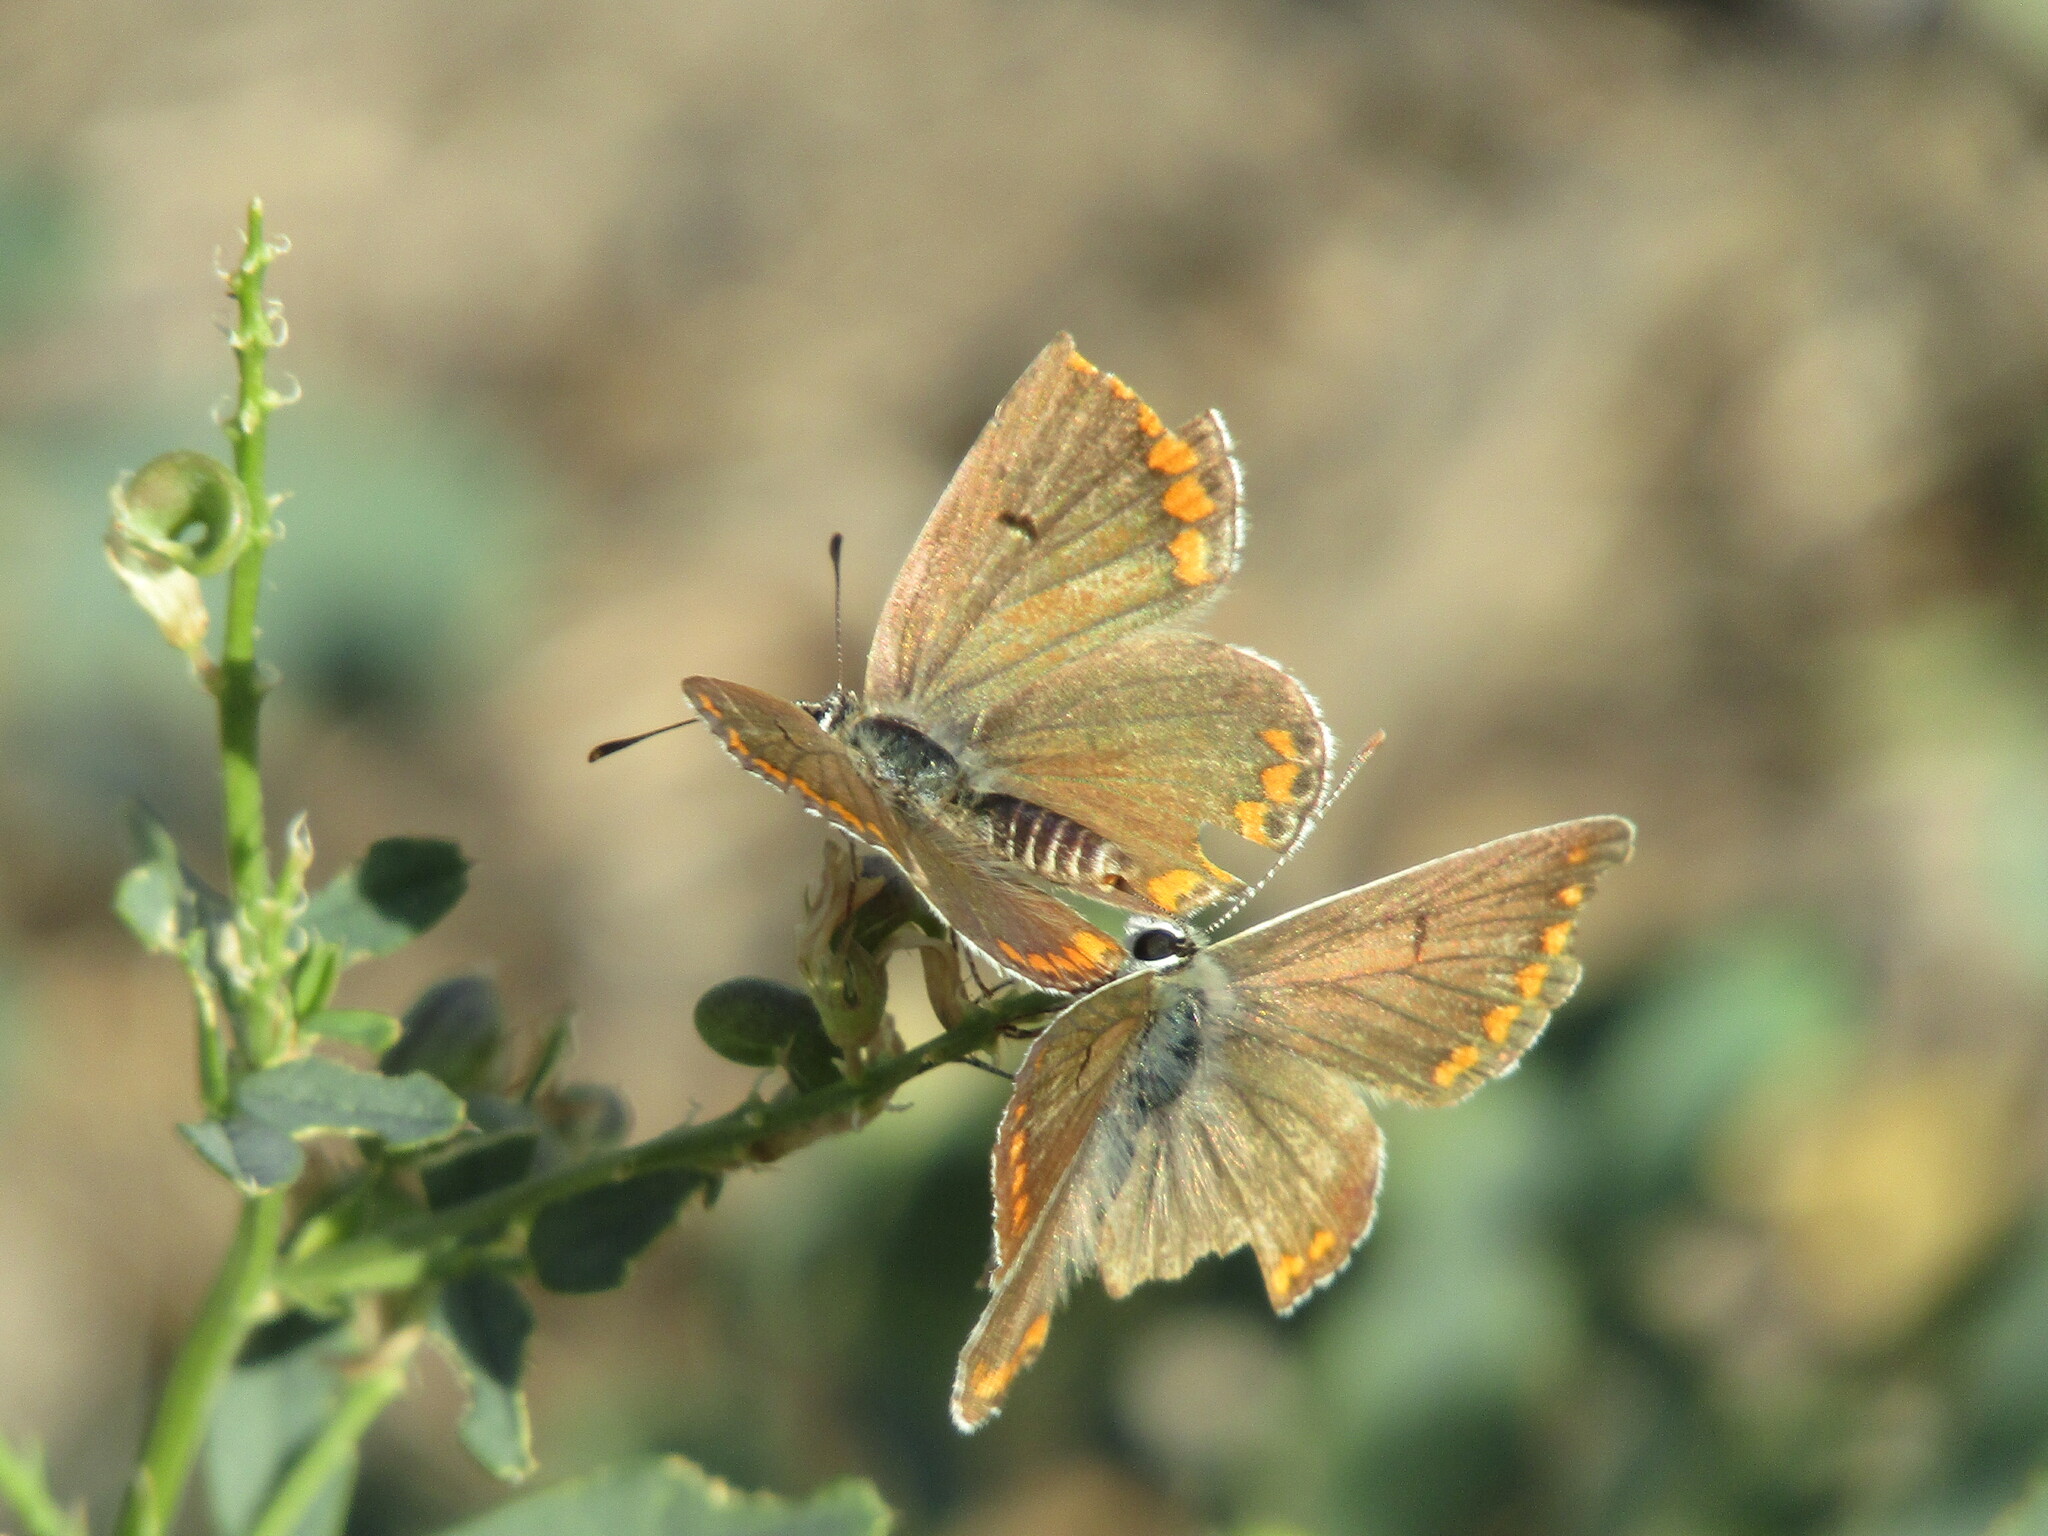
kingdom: Animalia
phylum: Arthropoda
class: Insecta
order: Lepidoptera
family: Lycaenidae
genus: Aricia
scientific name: Aricia agestis
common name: Brown argus
